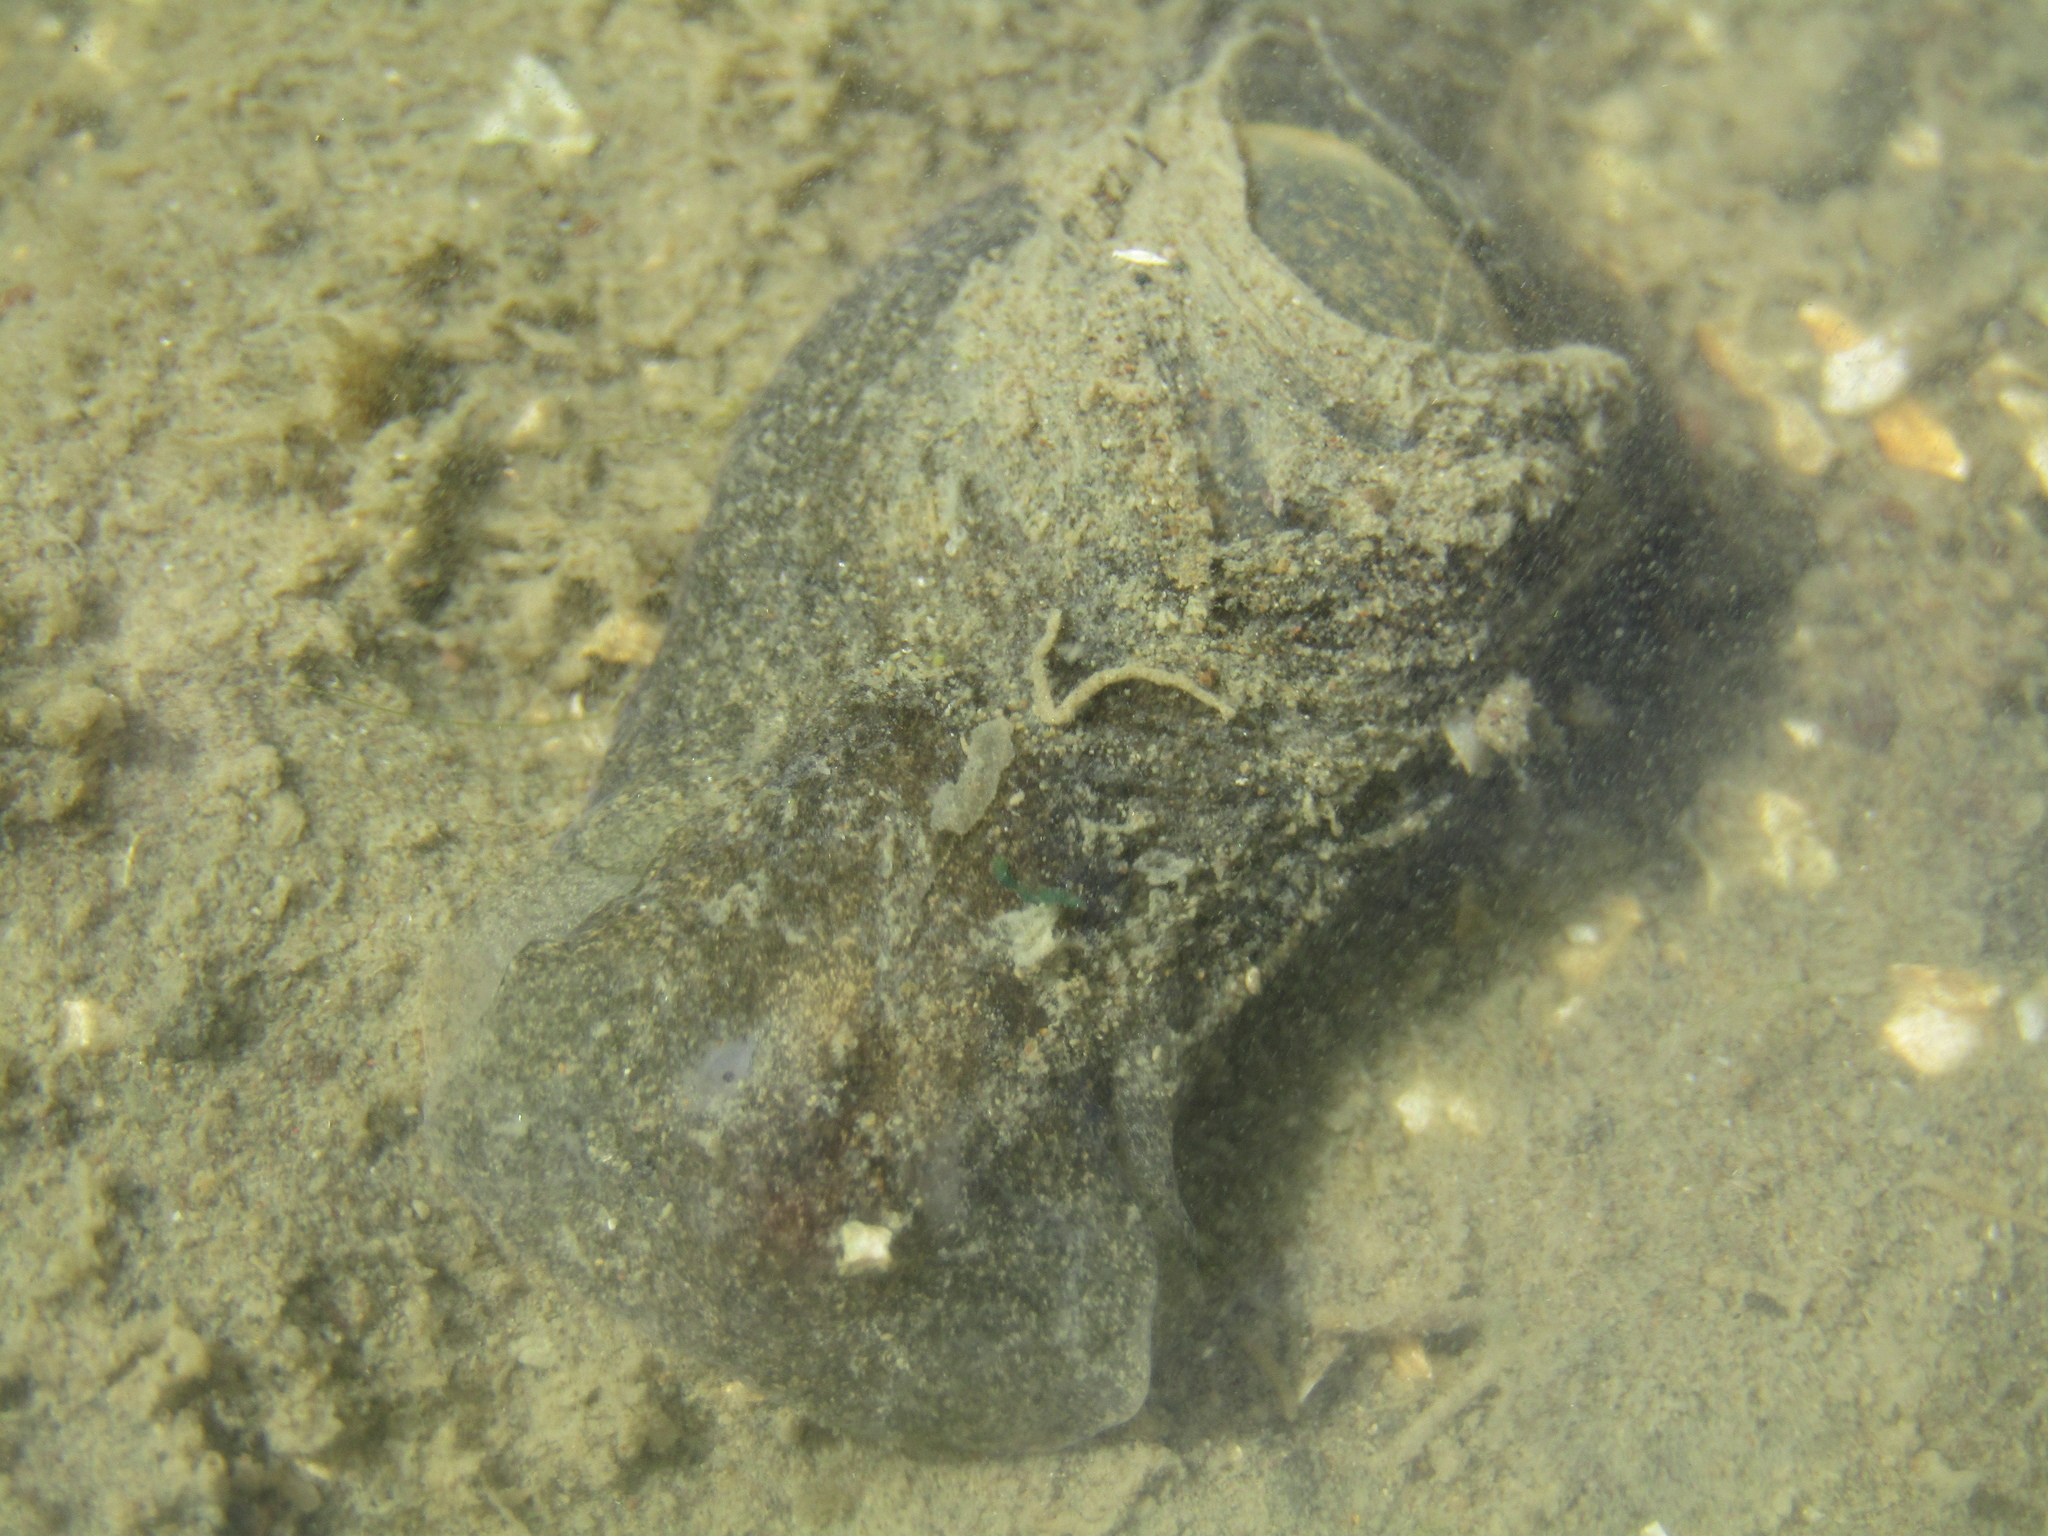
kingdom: Animalia
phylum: Mollusca
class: Gastropoda
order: Cephalaspidea
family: Haminoeidae
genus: Papawera
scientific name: Papawera zelandiae
